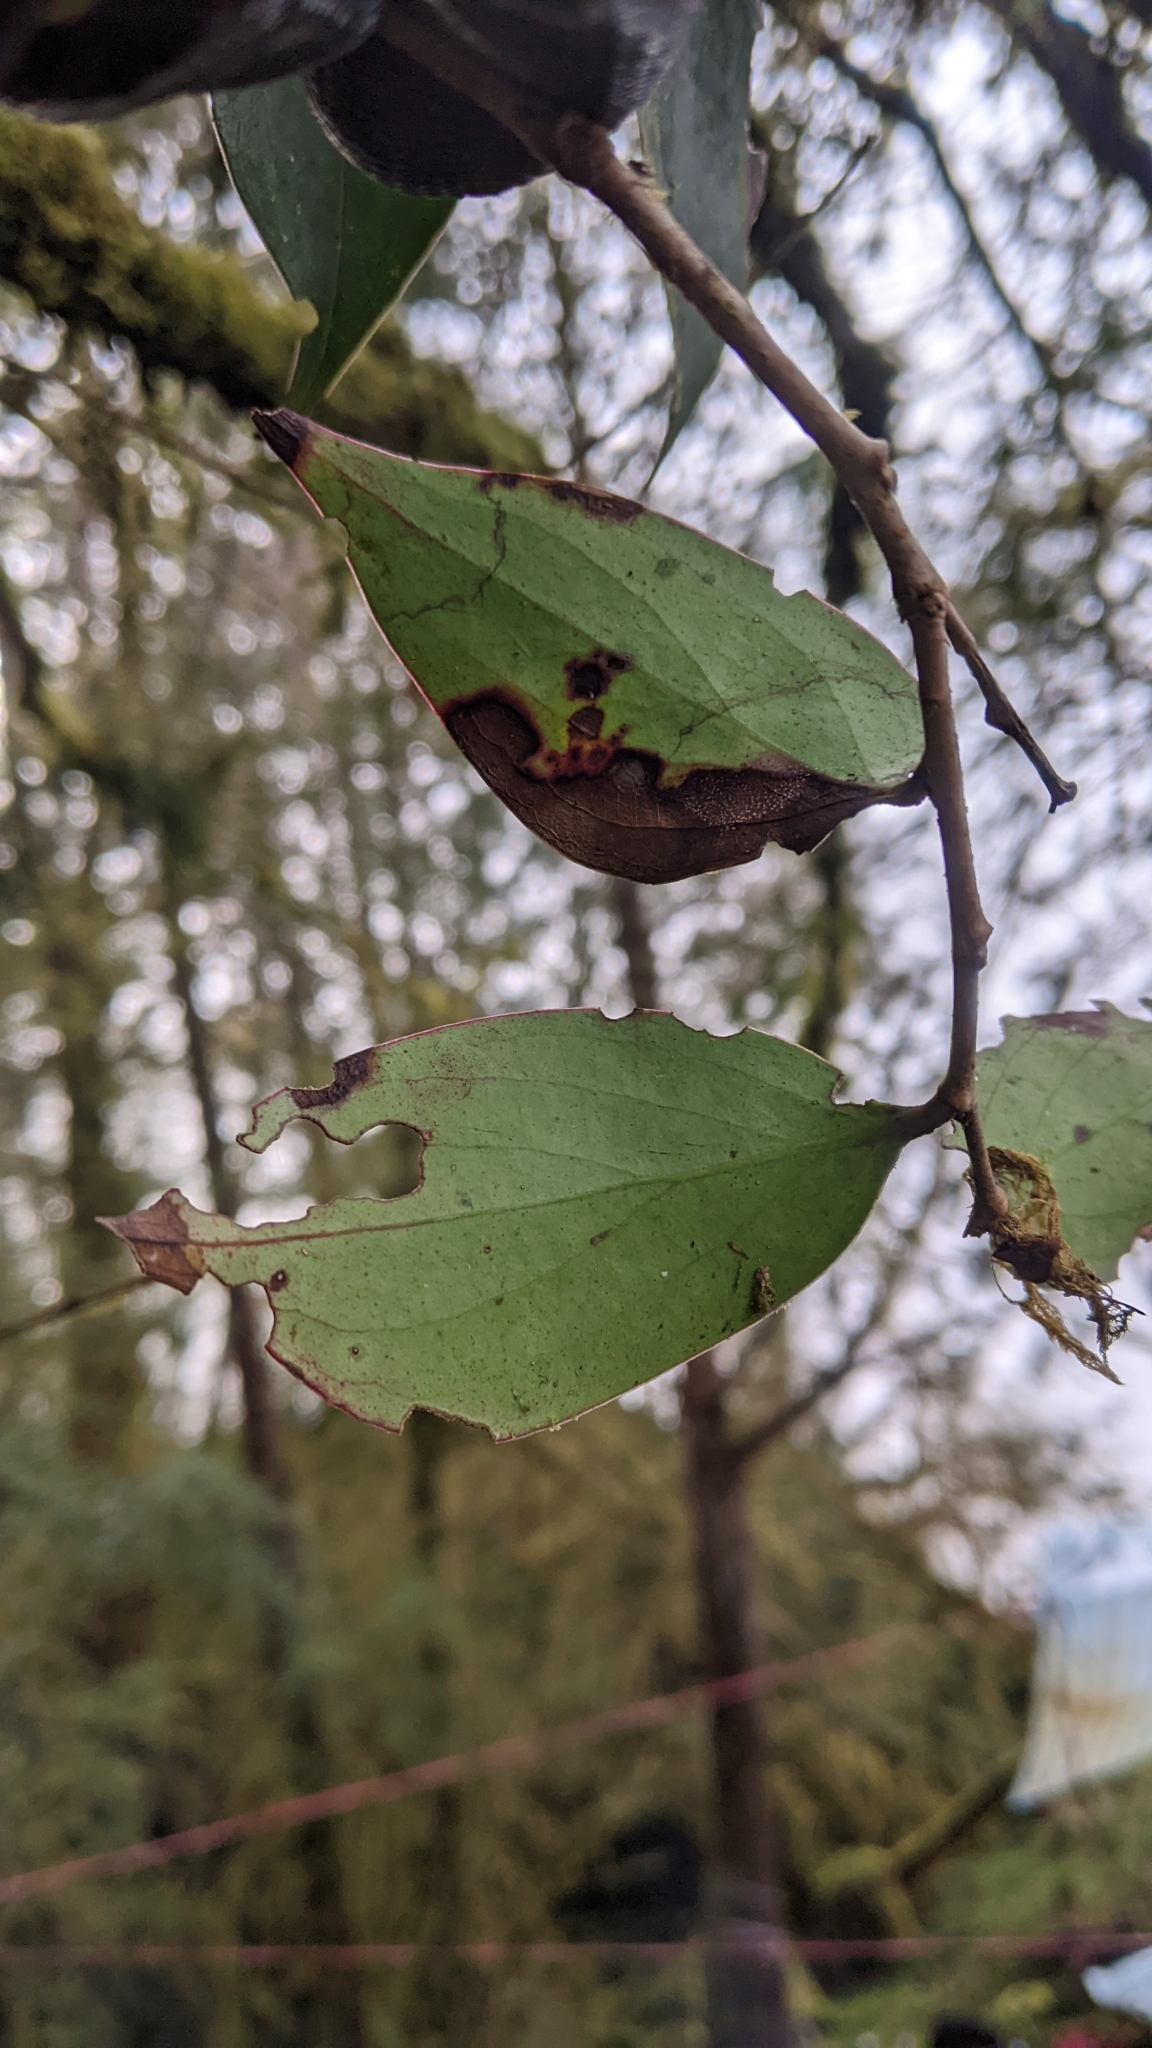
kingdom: Plantae
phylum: Tracheophyta
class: Magnoliopsida
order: Ericales
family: Ericaceae
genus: Vaccinium
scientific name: Vaccinium dunalianum
